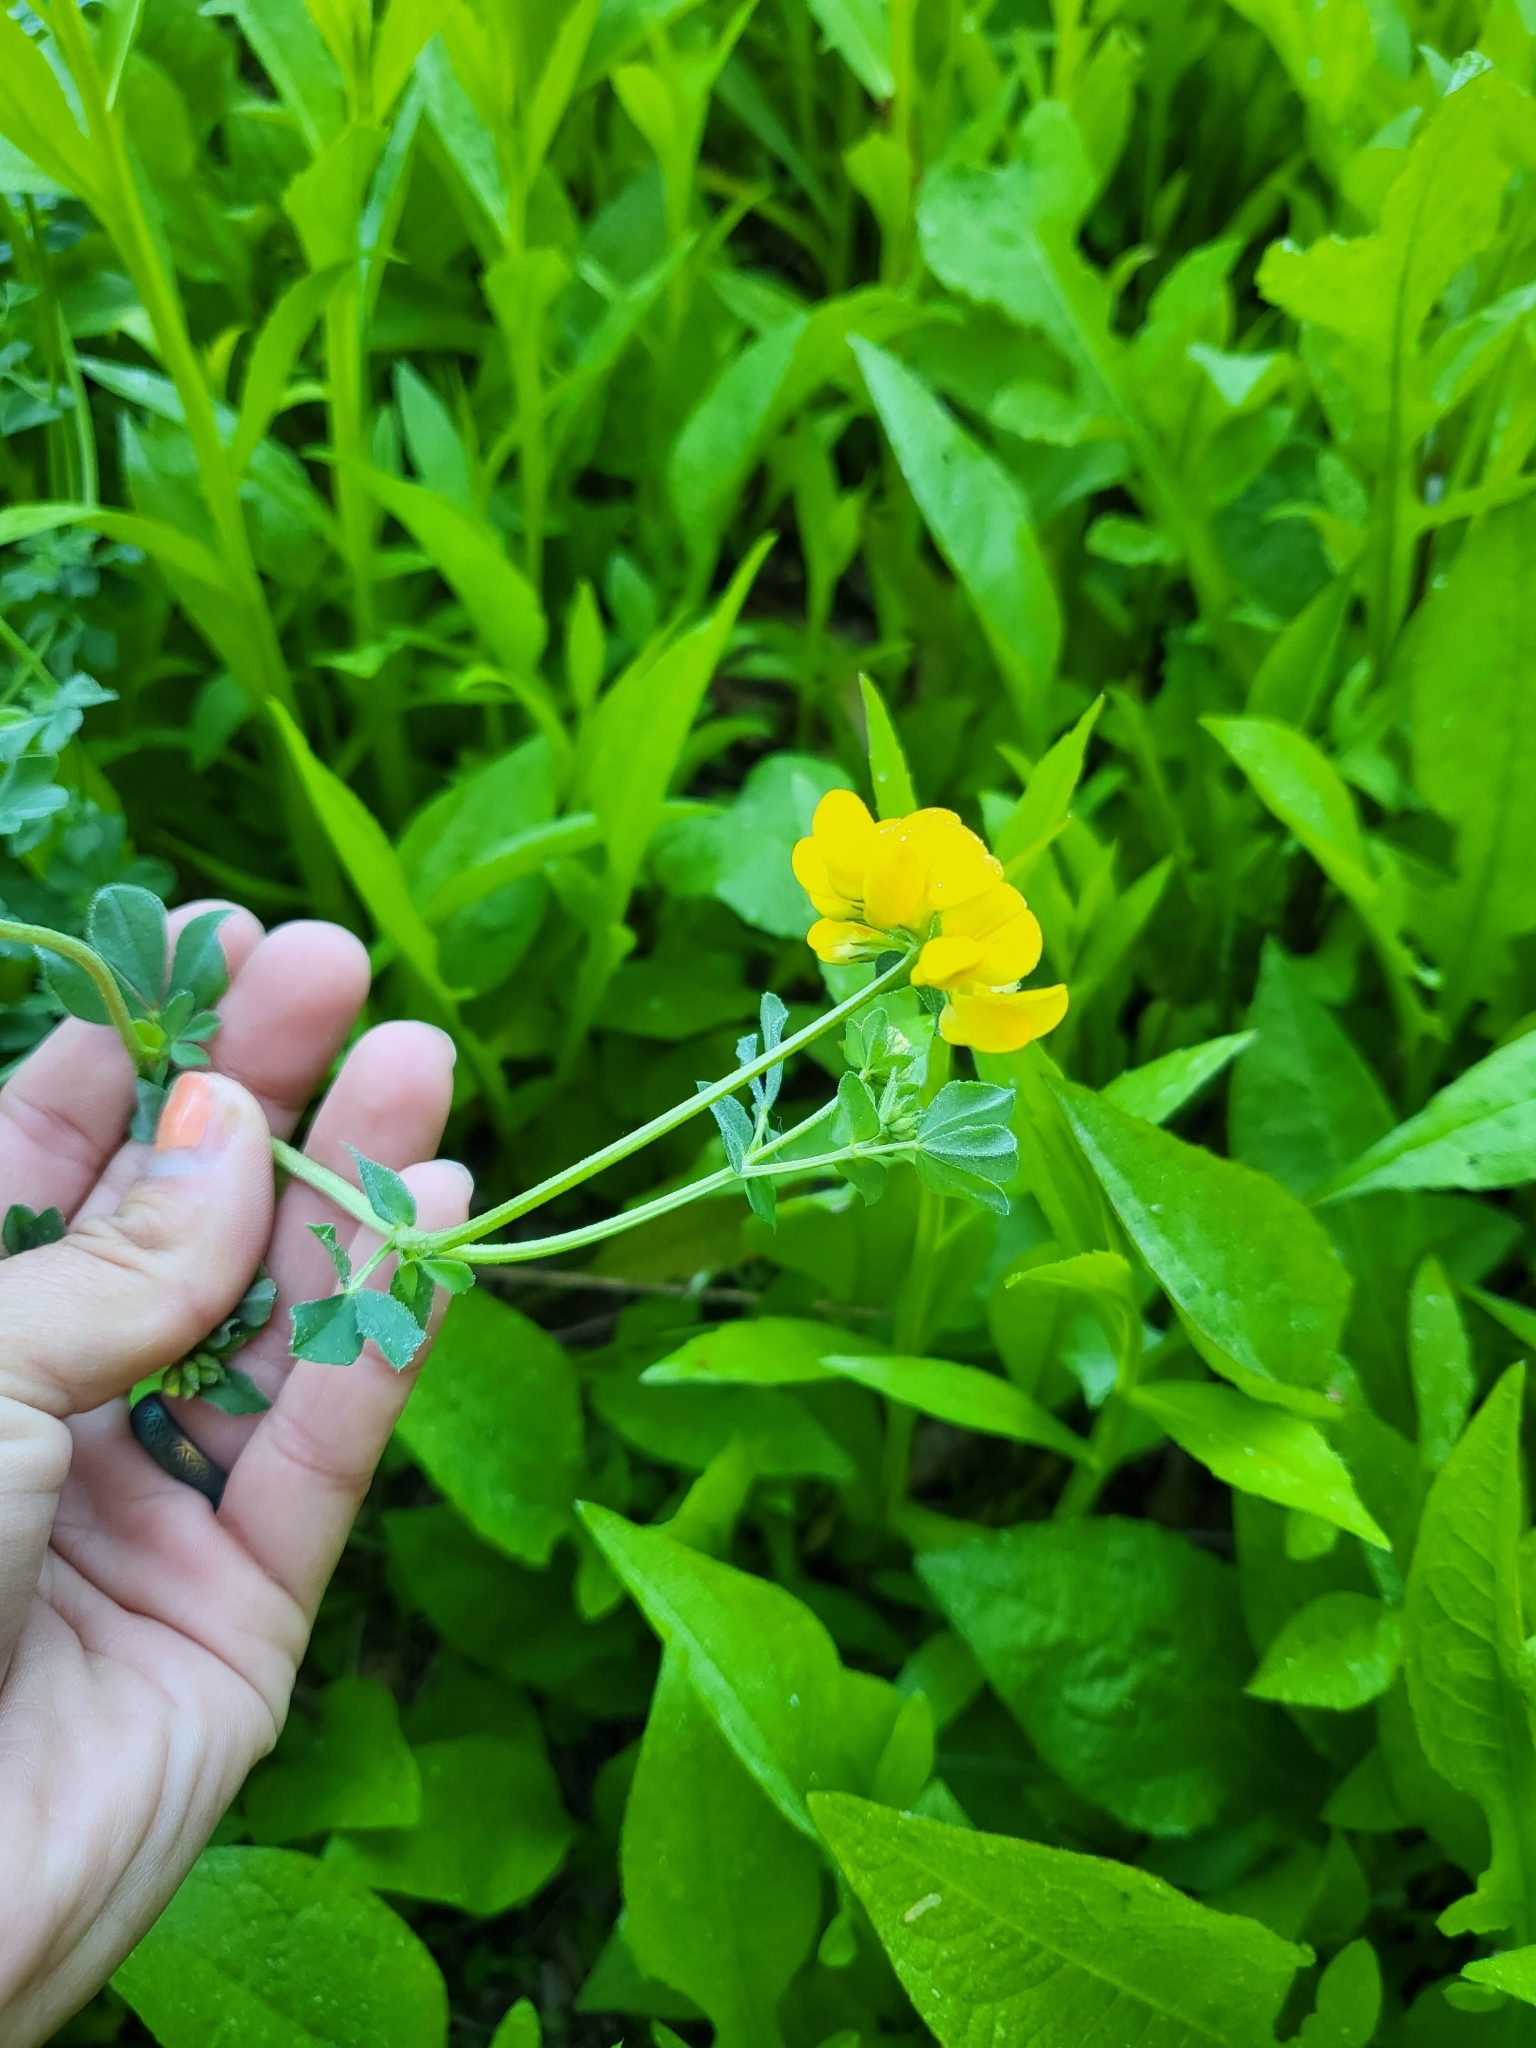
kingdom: Plantae
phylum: Tracheophyta
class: Magnoliopsida
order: Fabales
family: Fabaceae
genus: Lotus
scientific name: Lotus corniculatus
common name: Common bird's-foot-trefoil
